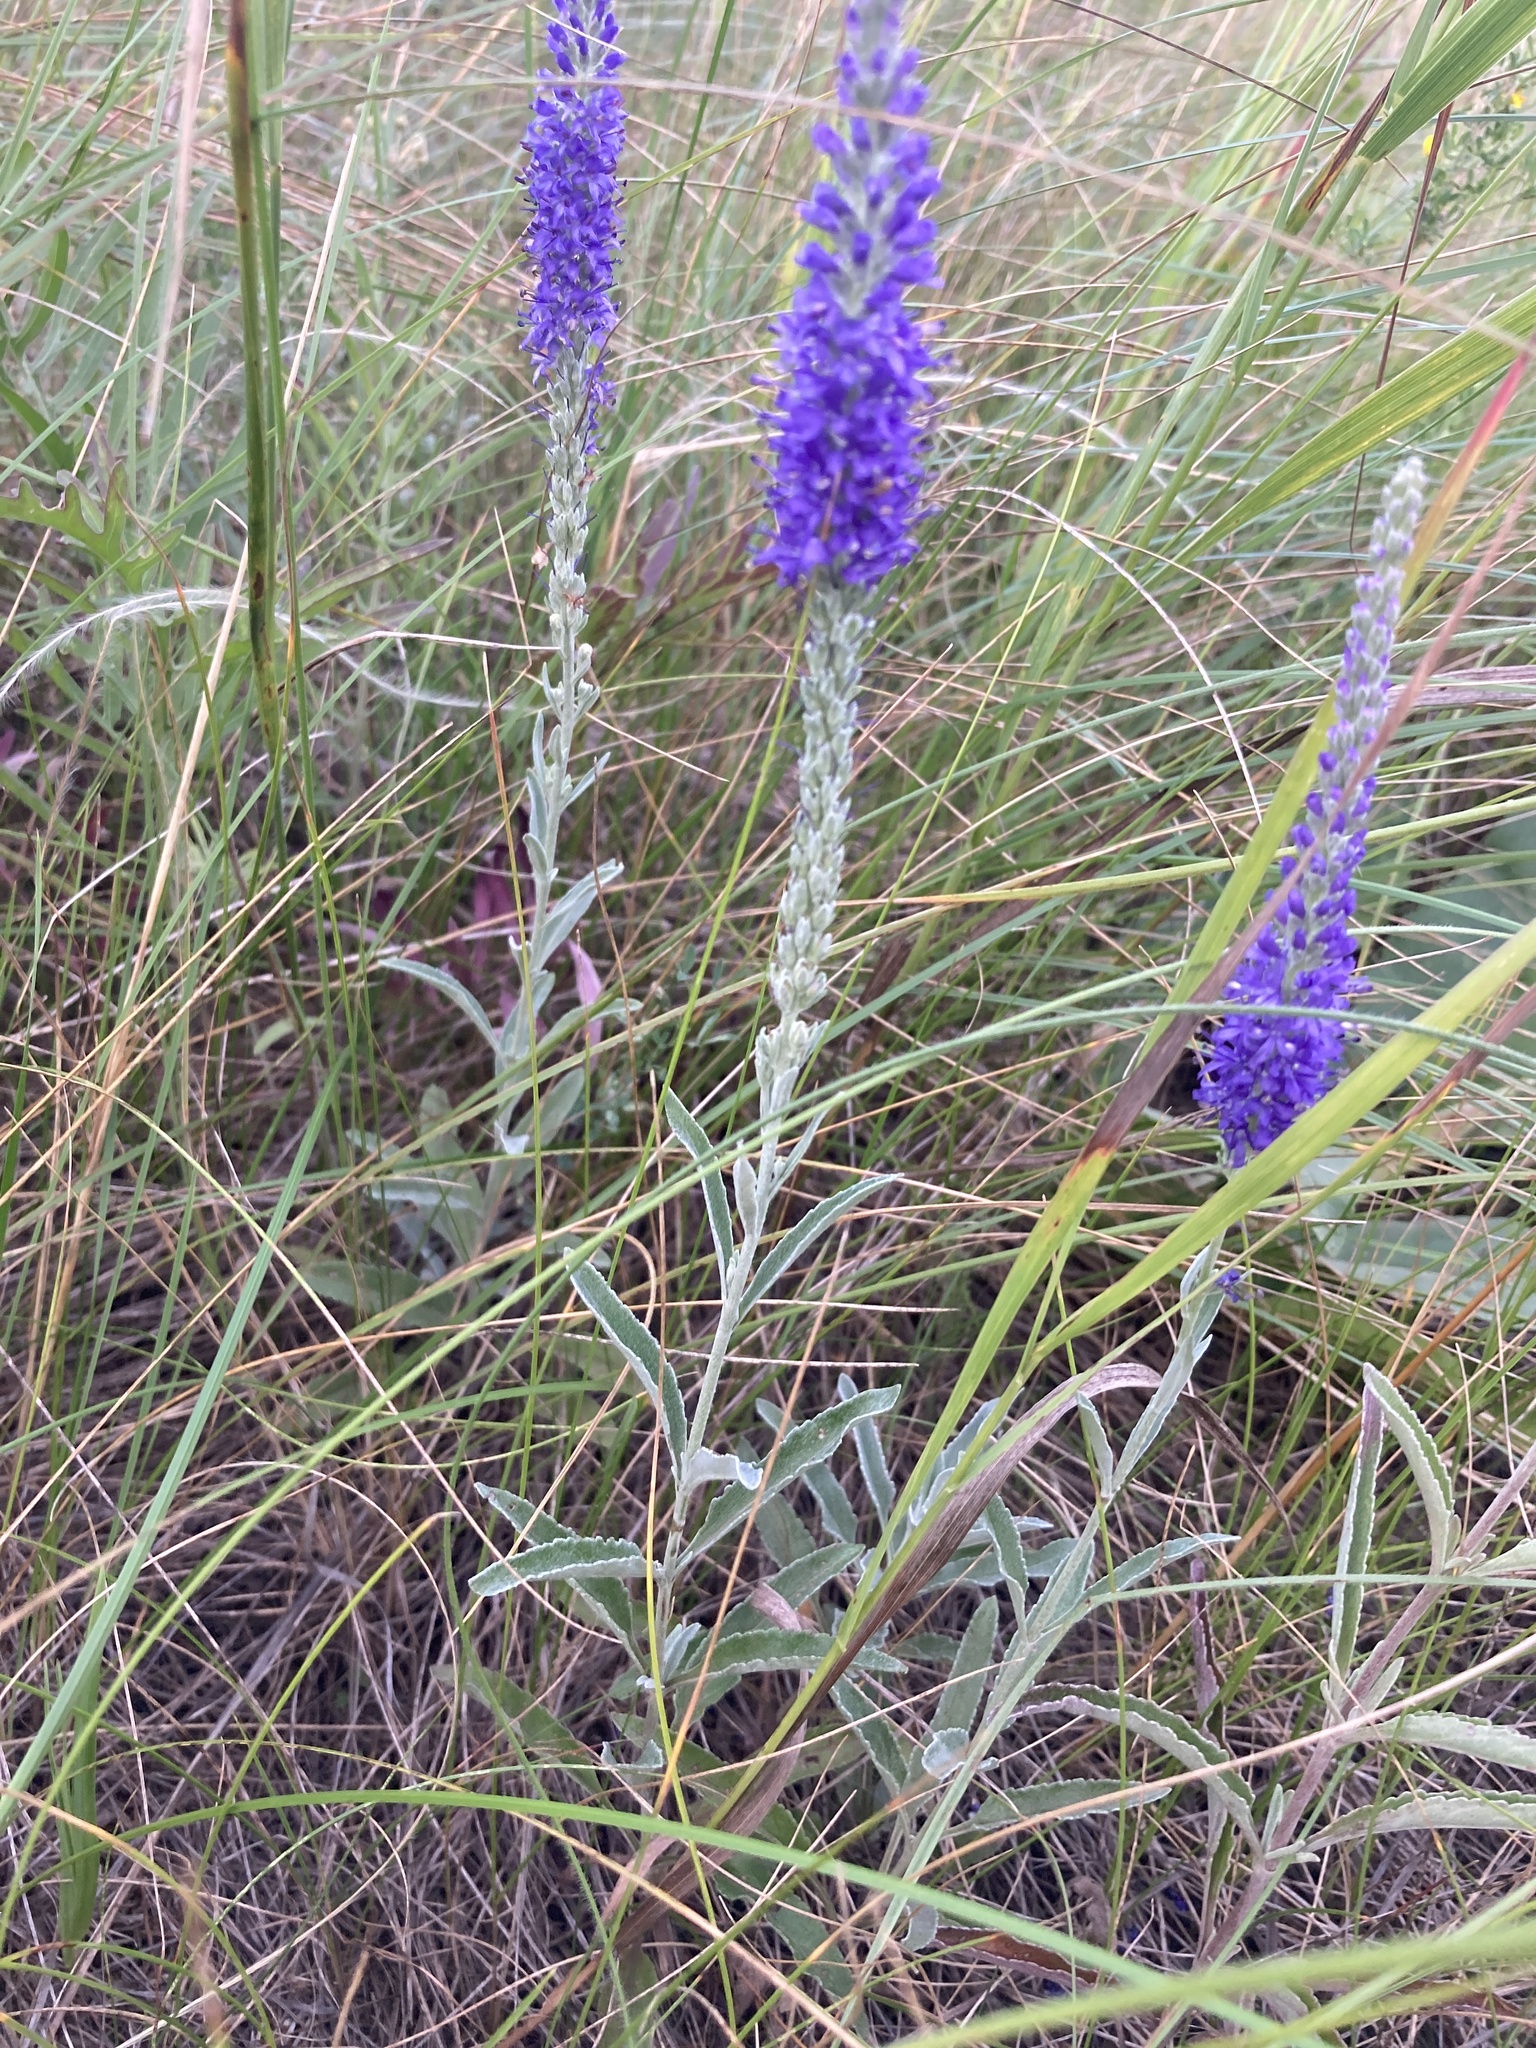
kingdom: Plantae
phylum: Tracheophyta
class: Magnoliopsida
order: Lamiales
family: Plantaginaceae
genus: Veronica
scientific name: Veronica incana
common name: Silver speedwell
